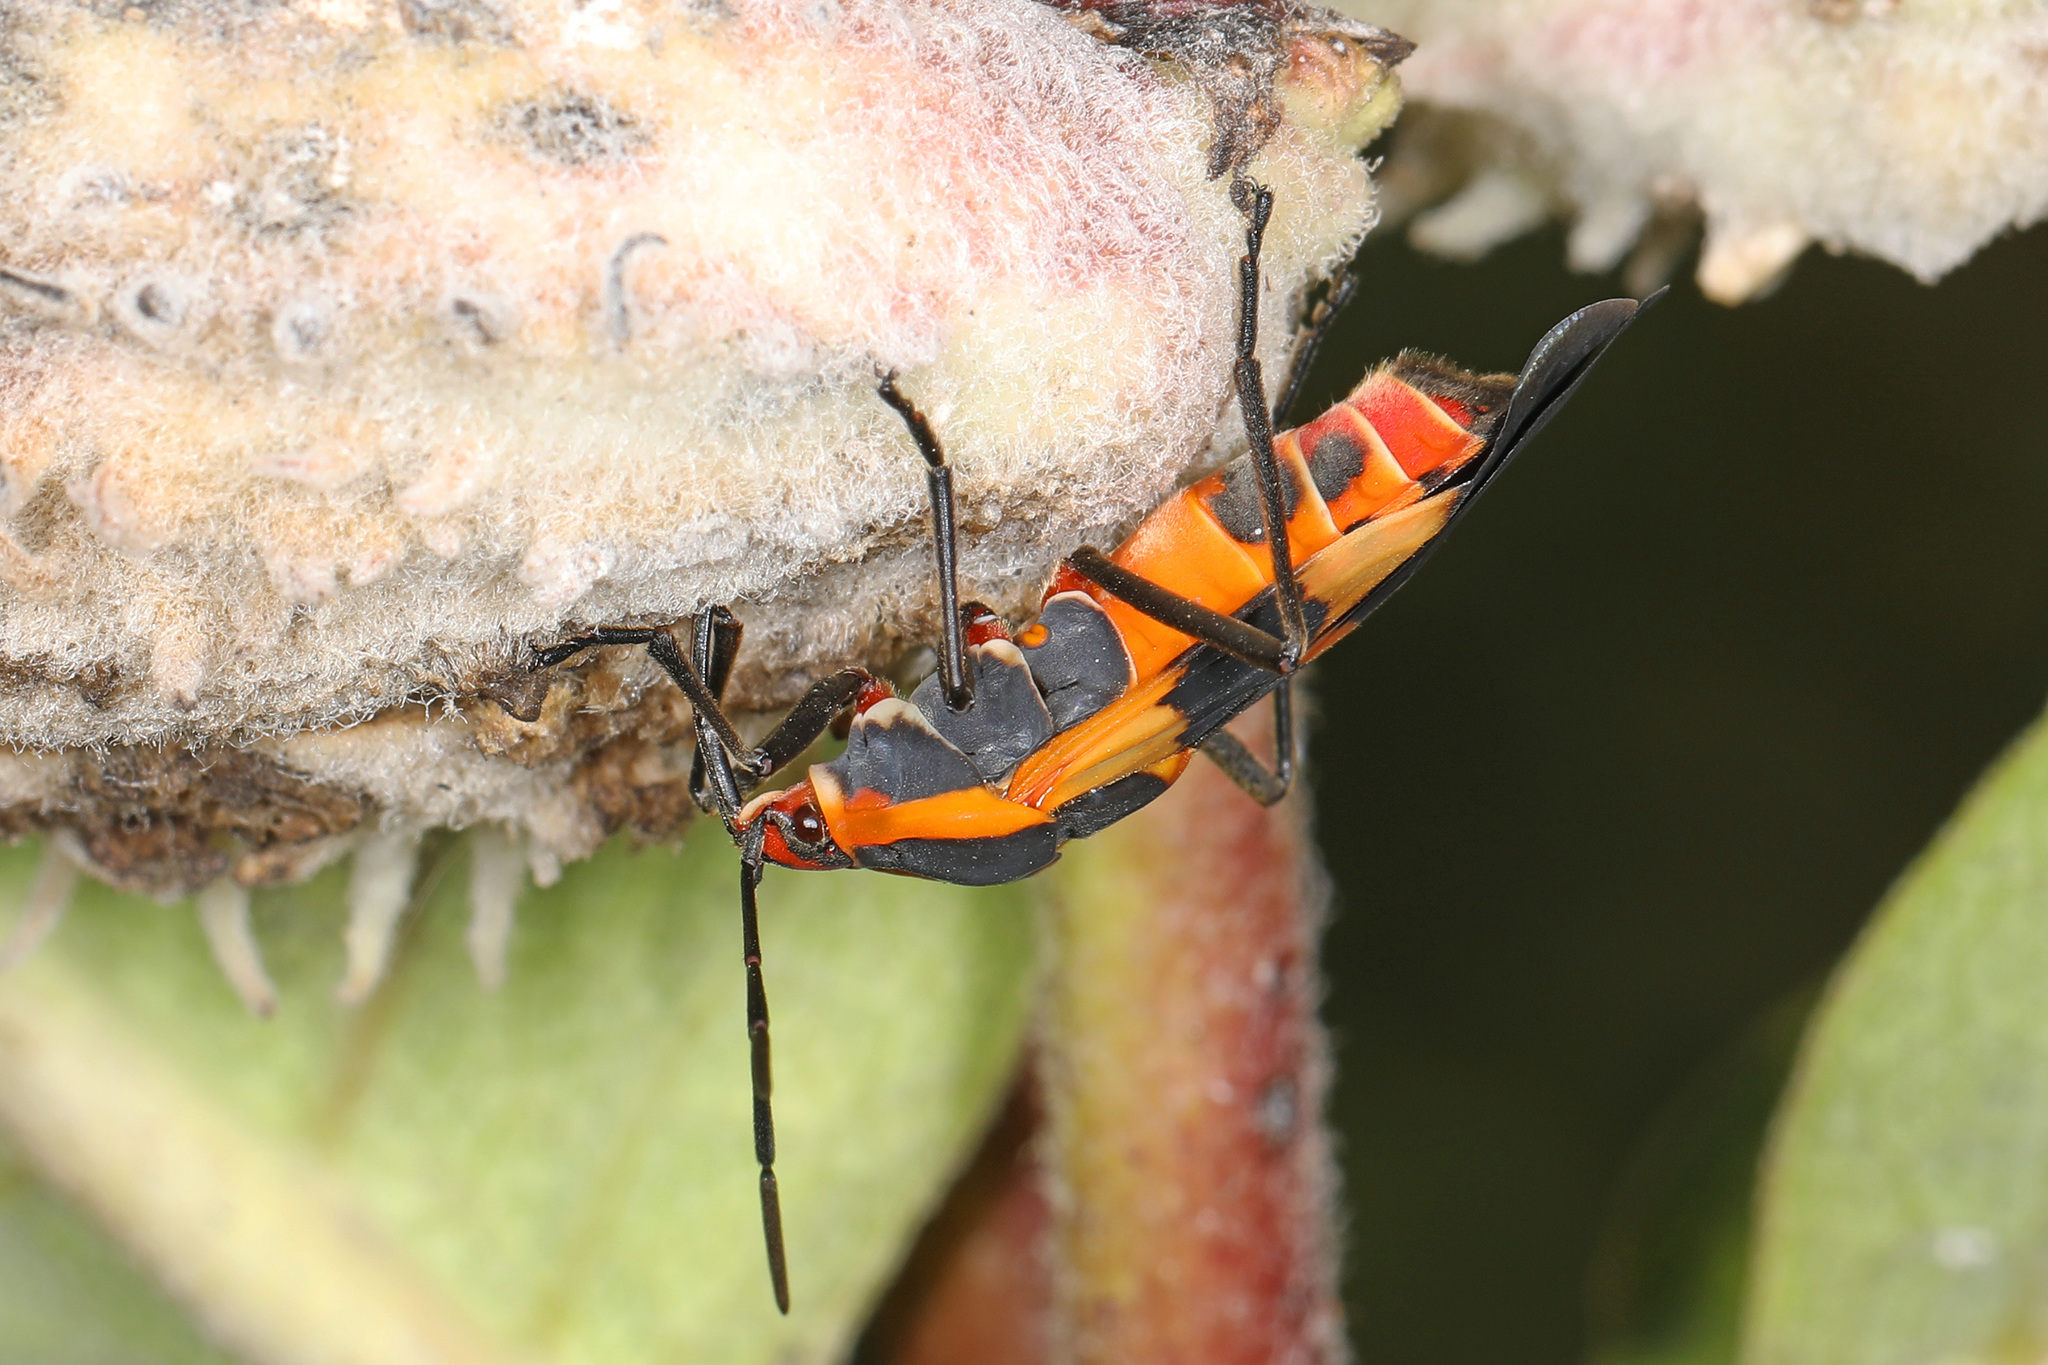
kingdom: Animalia
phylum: Arthropoda
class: Insecta
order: Hemiptera
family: Lygaeidae
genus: Oncopeltus
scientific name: Oncopeltus fasciatus
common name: Large milkweed bug
